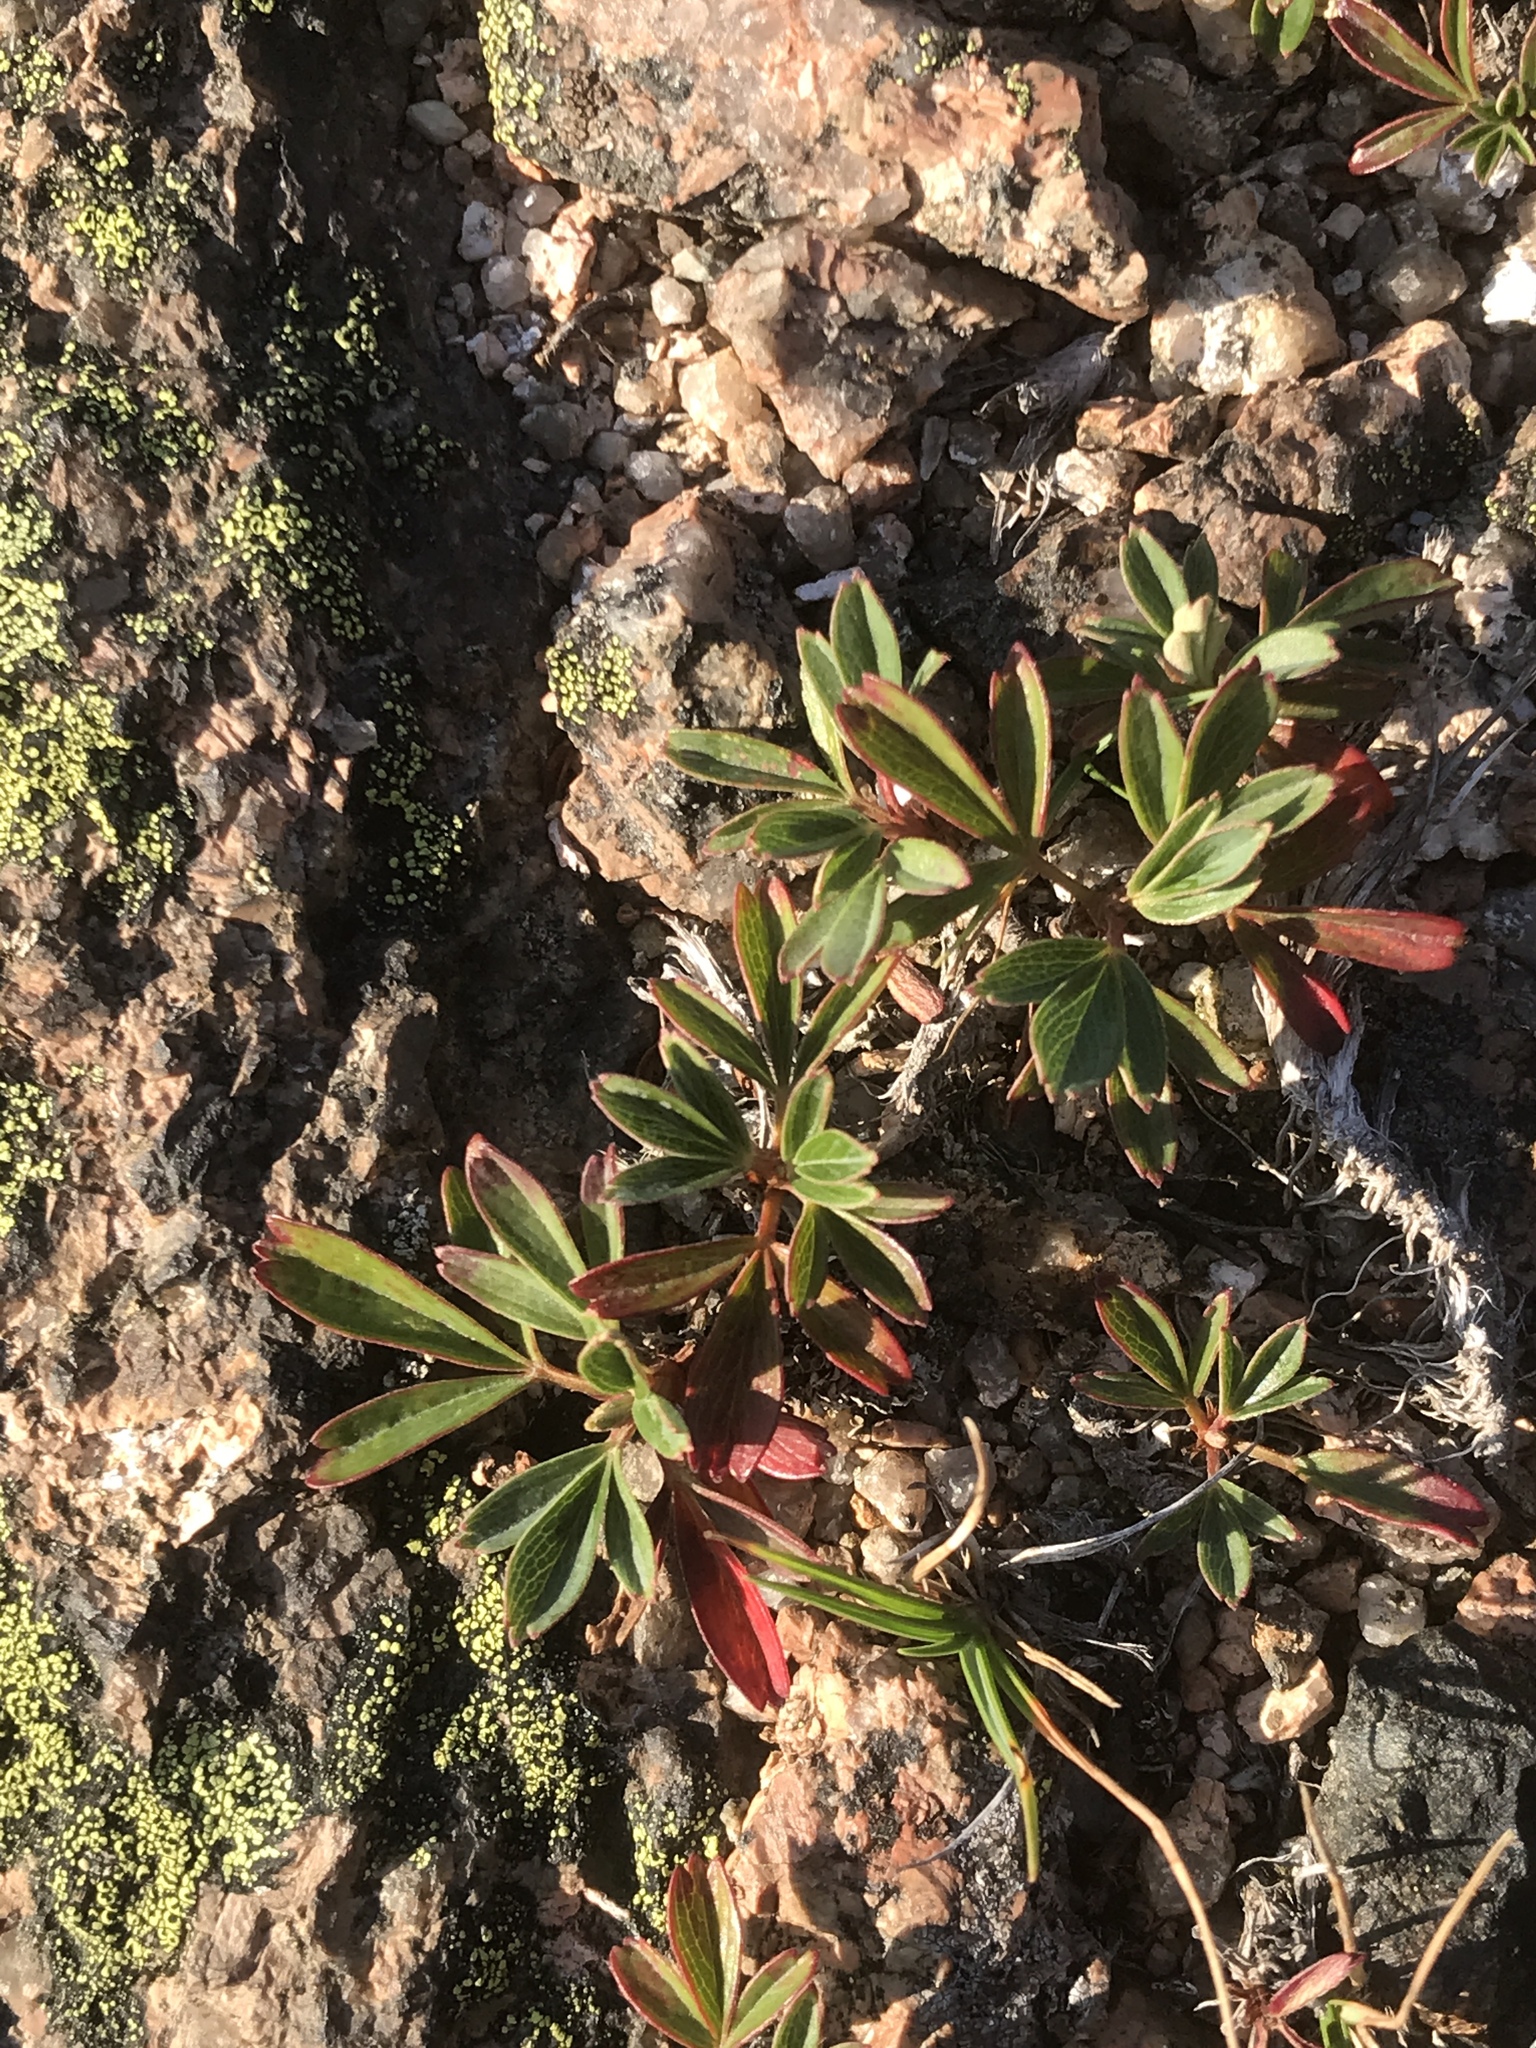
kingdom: Plantae
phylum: Tracheophyta
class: Magnoliopsida
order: Rosales
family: Rosaceae
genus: Sibbaldia
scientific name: Sibbaldia tridentata
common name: Three-toothed cinquefoil
